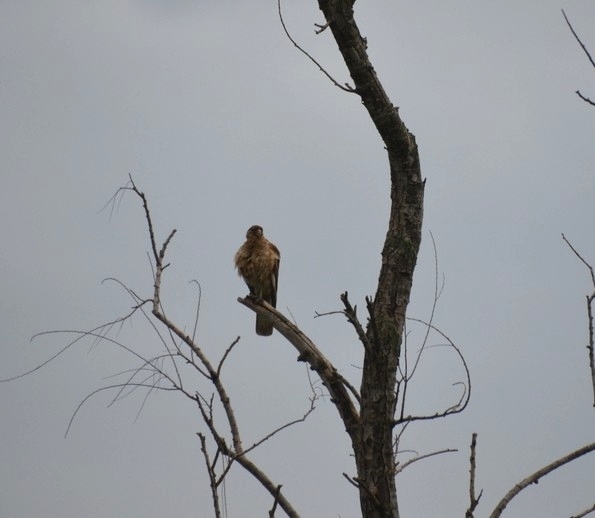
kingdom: Animalia
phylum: Chordata
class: Aves
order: Falconiformes
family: Falconidae
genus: Daptrius
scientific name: Daptrius
